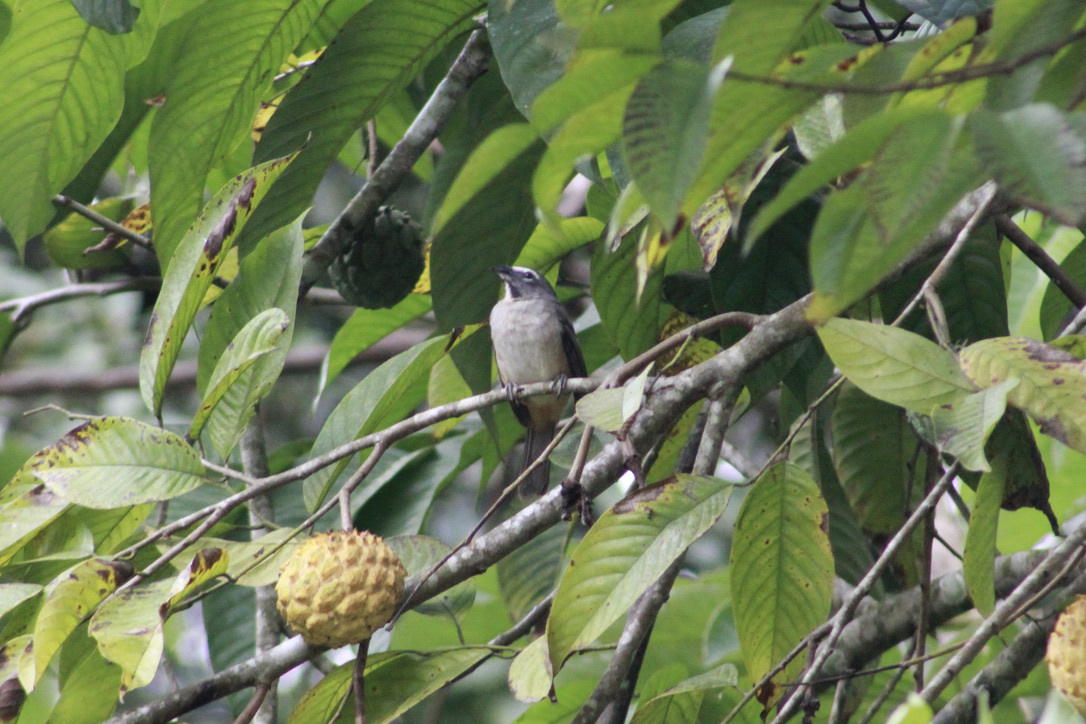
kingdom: Animalia
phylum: Chordata
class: Aves
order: Passeriformes
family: Thraupidae
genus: Saltator
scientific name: Saltator olivascens
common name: Caribbean grey saltator
